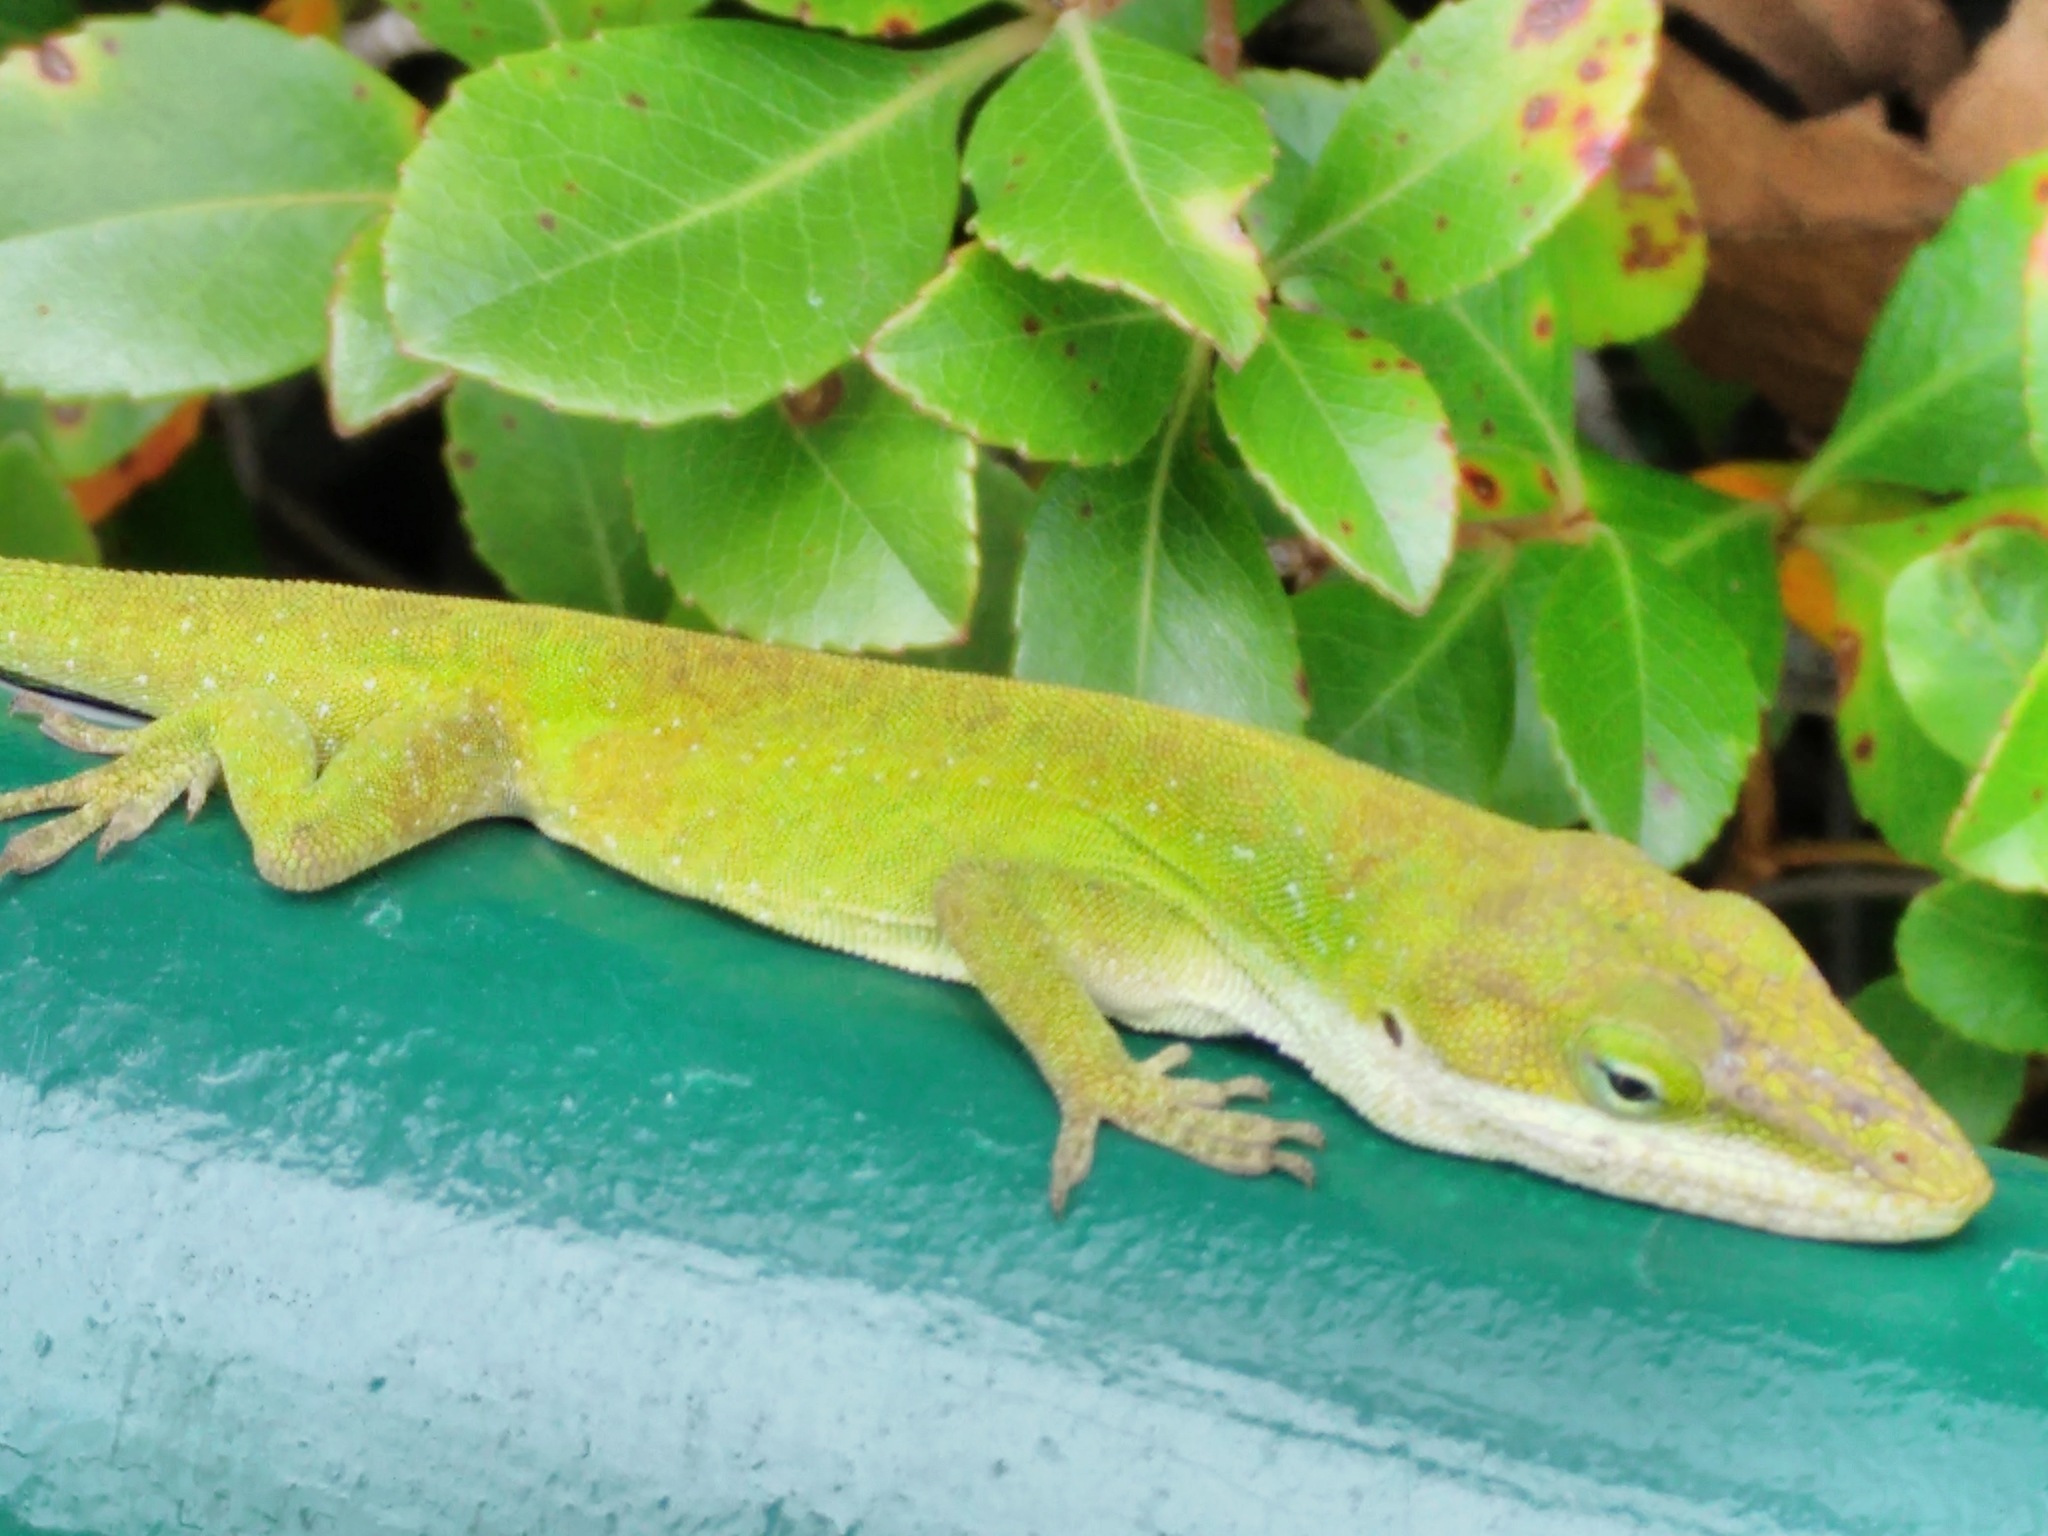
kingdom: Animalia
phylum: Chordata
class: Squamata
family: Dactyloidae
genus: Anolis
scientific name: Anolis carolinensis
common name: Green anole
